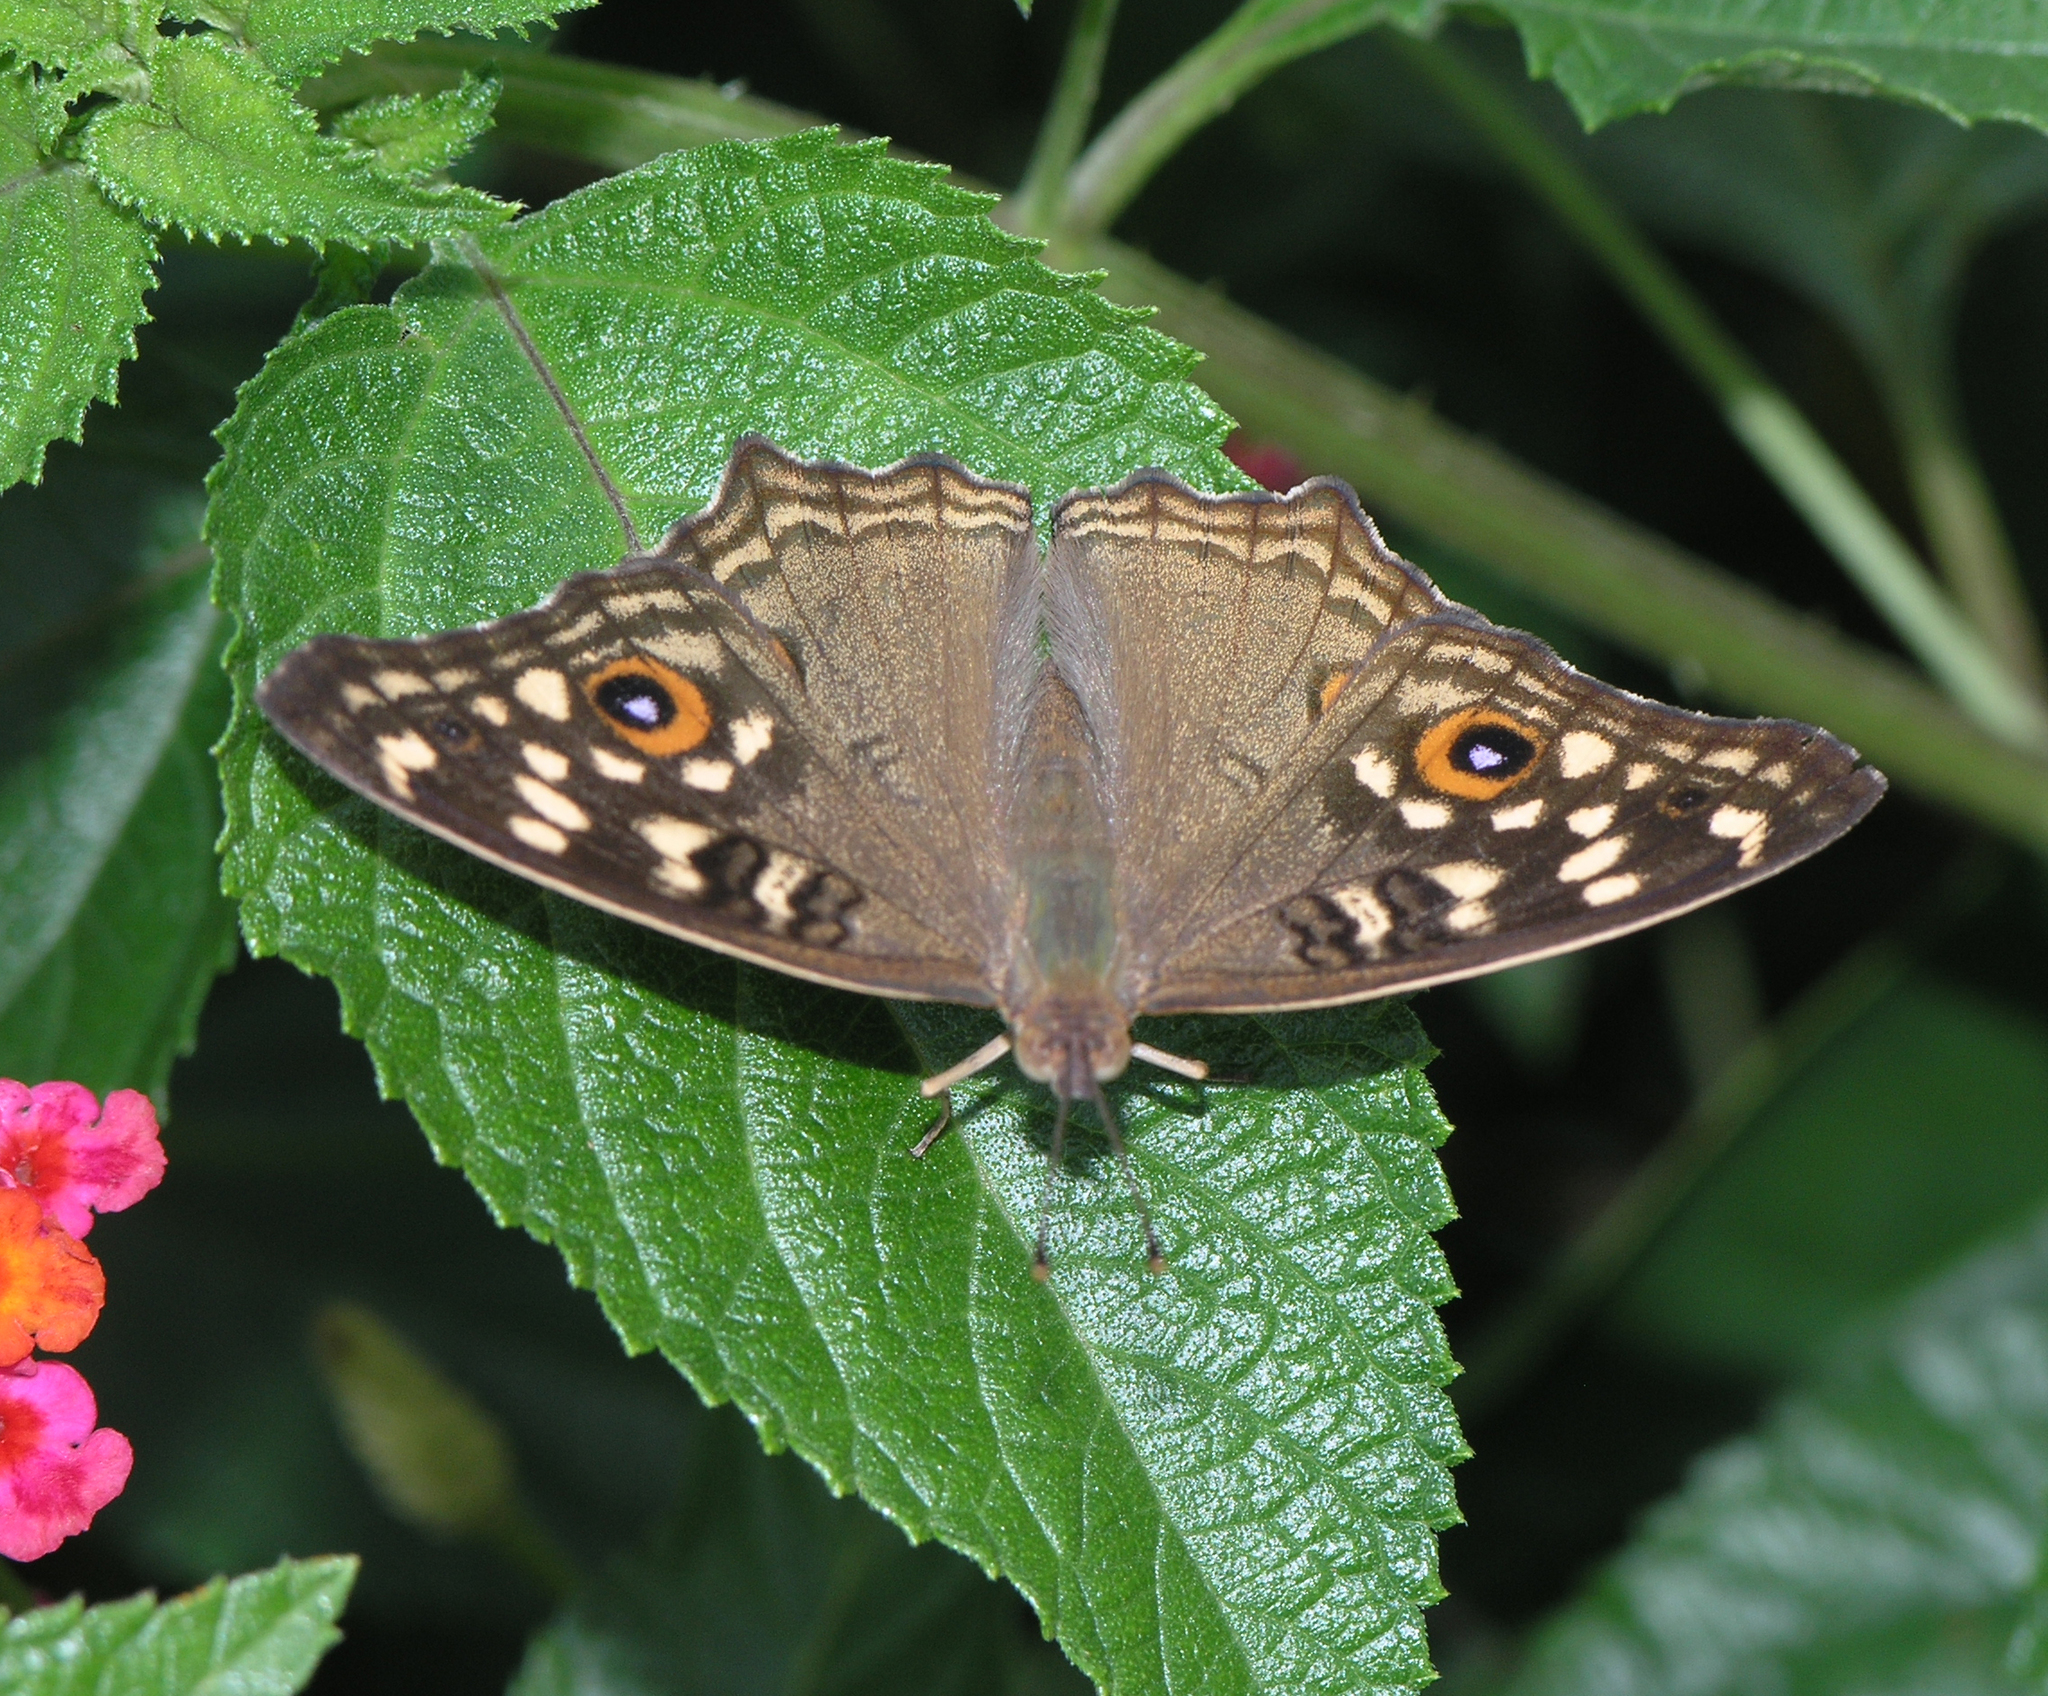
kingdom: Animalia
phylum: Arthropoda
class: Insecta
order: Lepidoptera
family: Nymphalidae
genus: Junonia
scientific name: Junonia lemonias
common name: Lemon pansy
